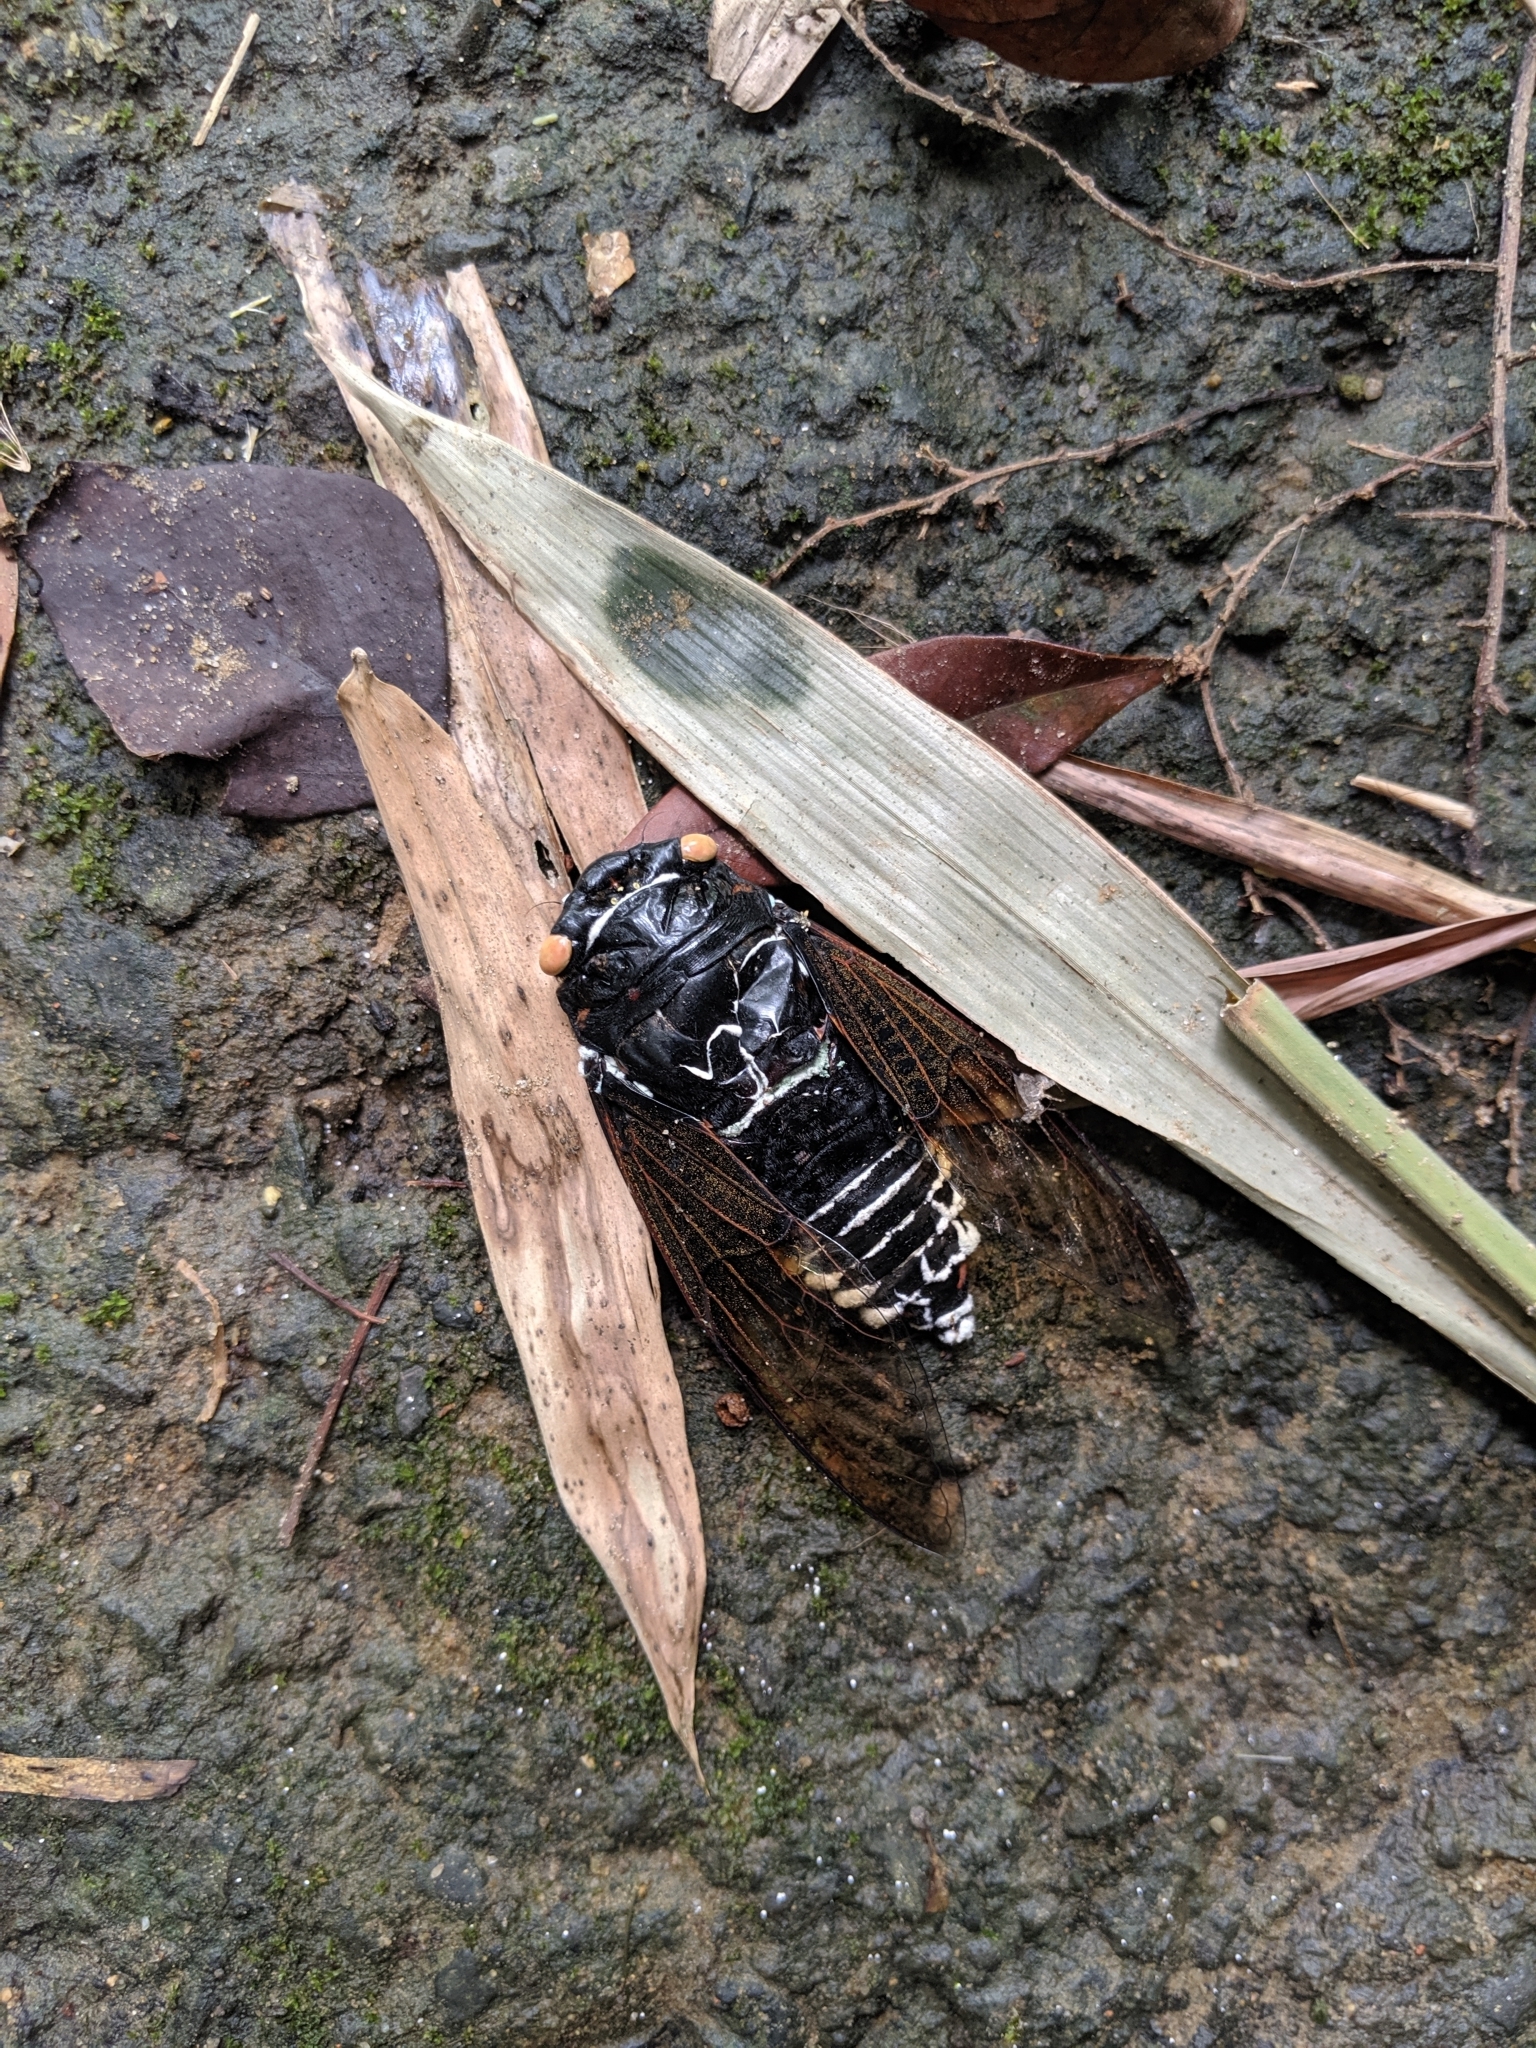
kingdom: Animalia
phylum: Arthropoda
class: Insecta
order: Hemiptera
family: Cicadidae
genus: Cryptotympana
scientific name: Cryptotympana holsti
